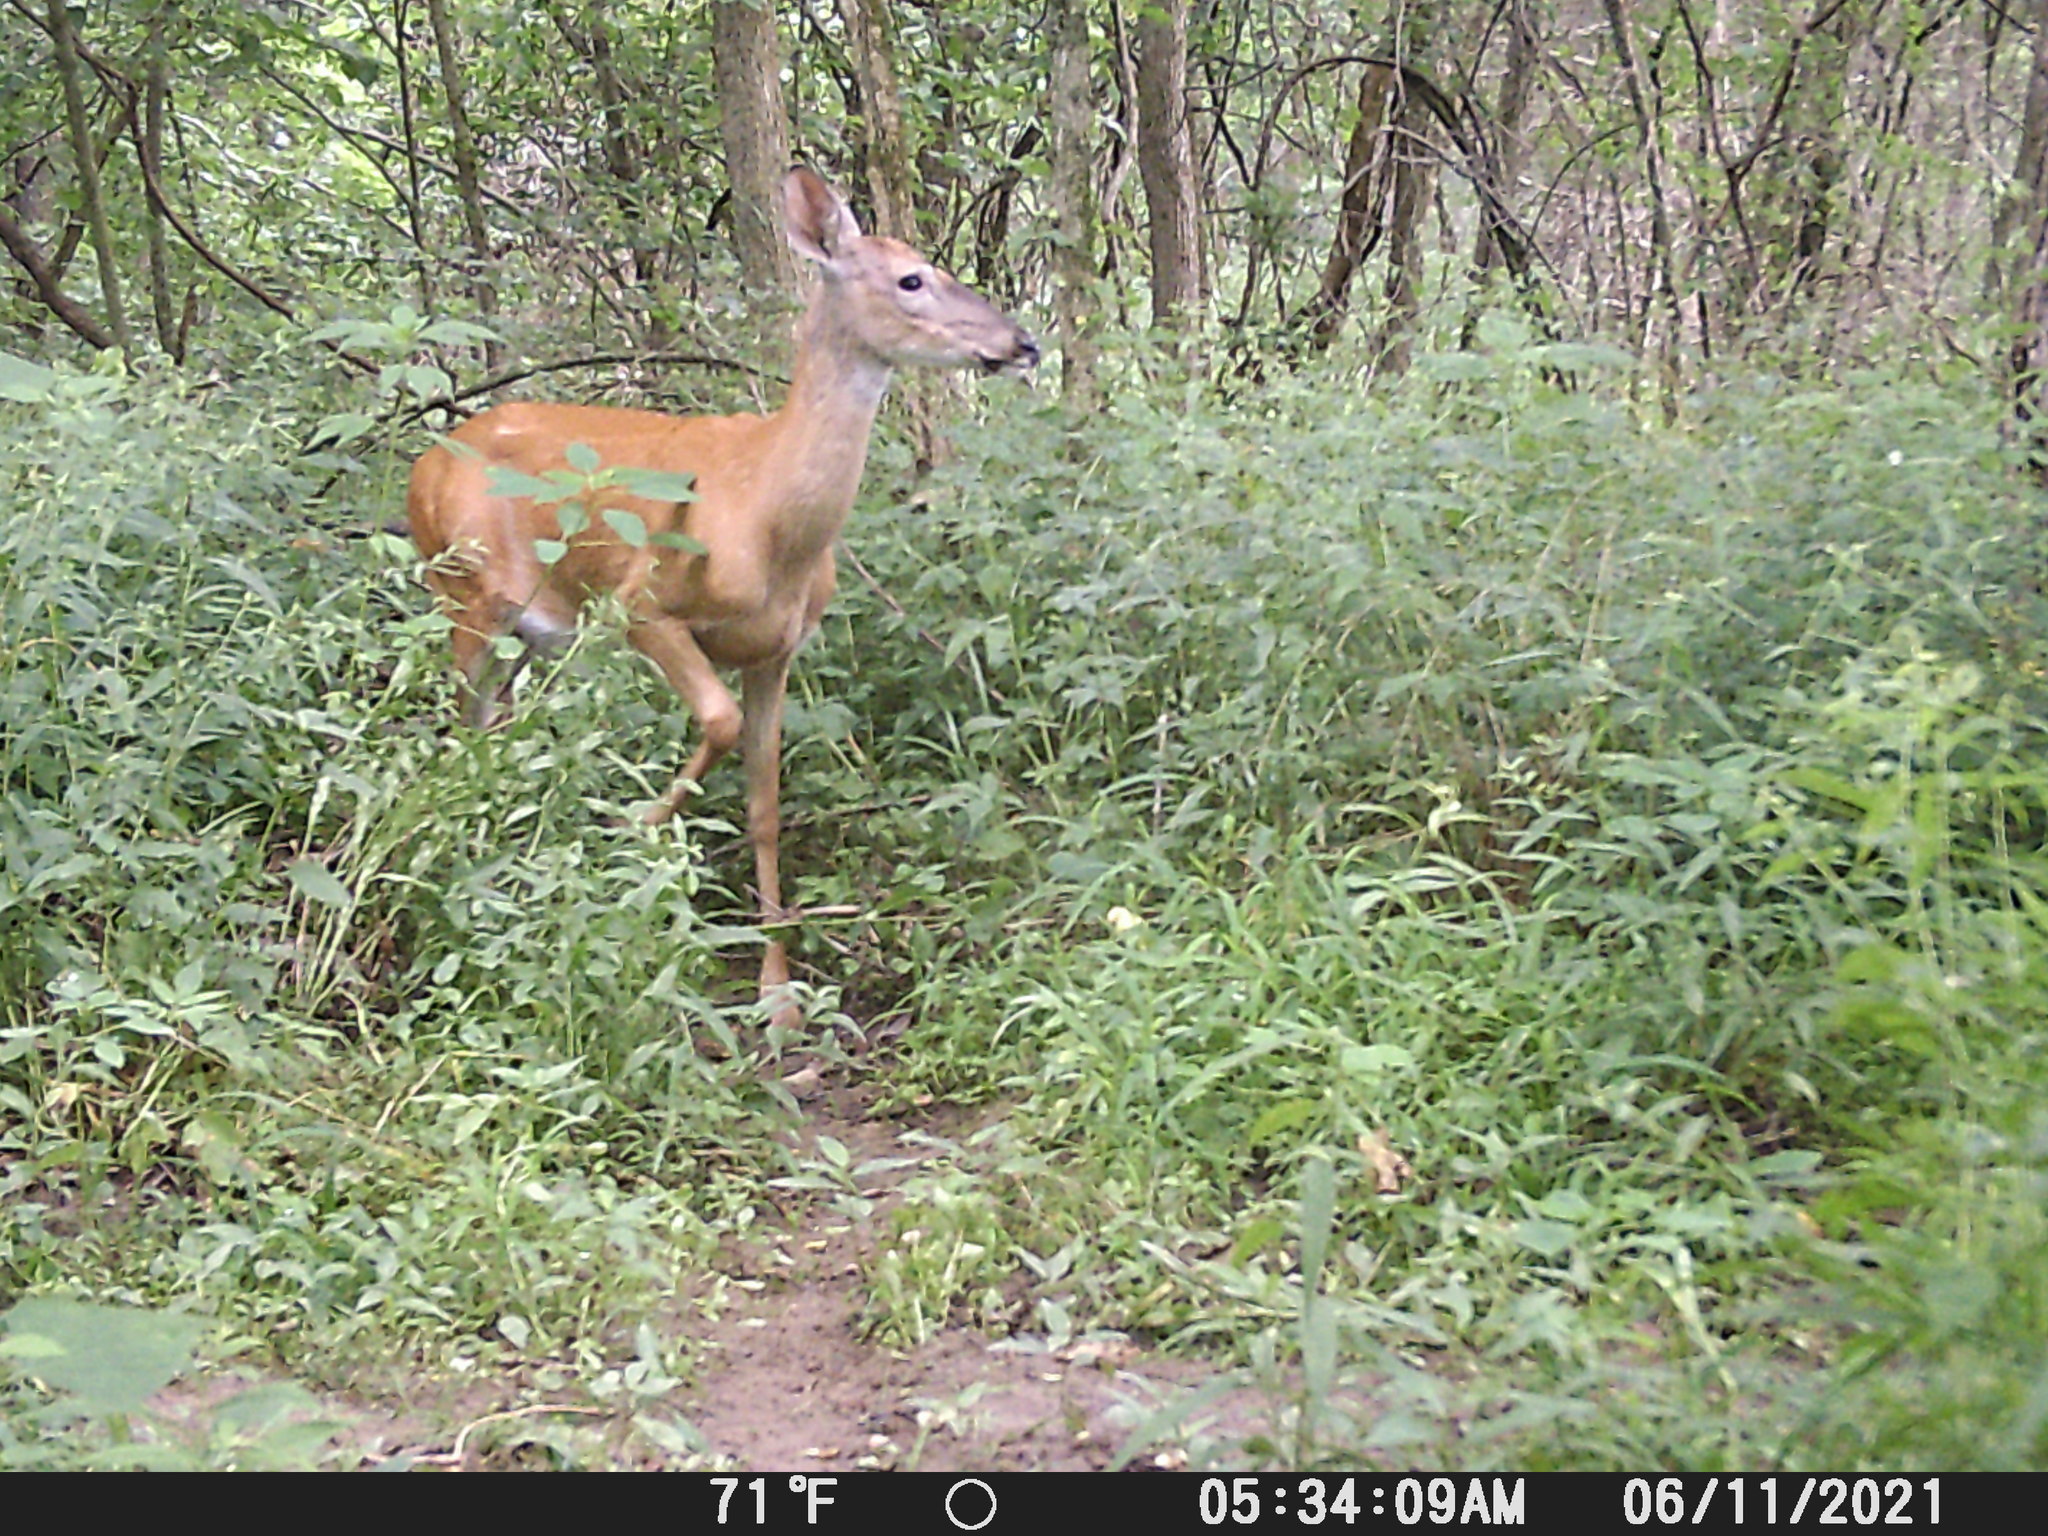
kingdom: Animalia
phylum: Chordata
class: Mammalia
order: Artiodactyla
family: Cervidae
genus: Odocoileus
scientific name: Odocoileus virginianus
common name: White-tailed deer
